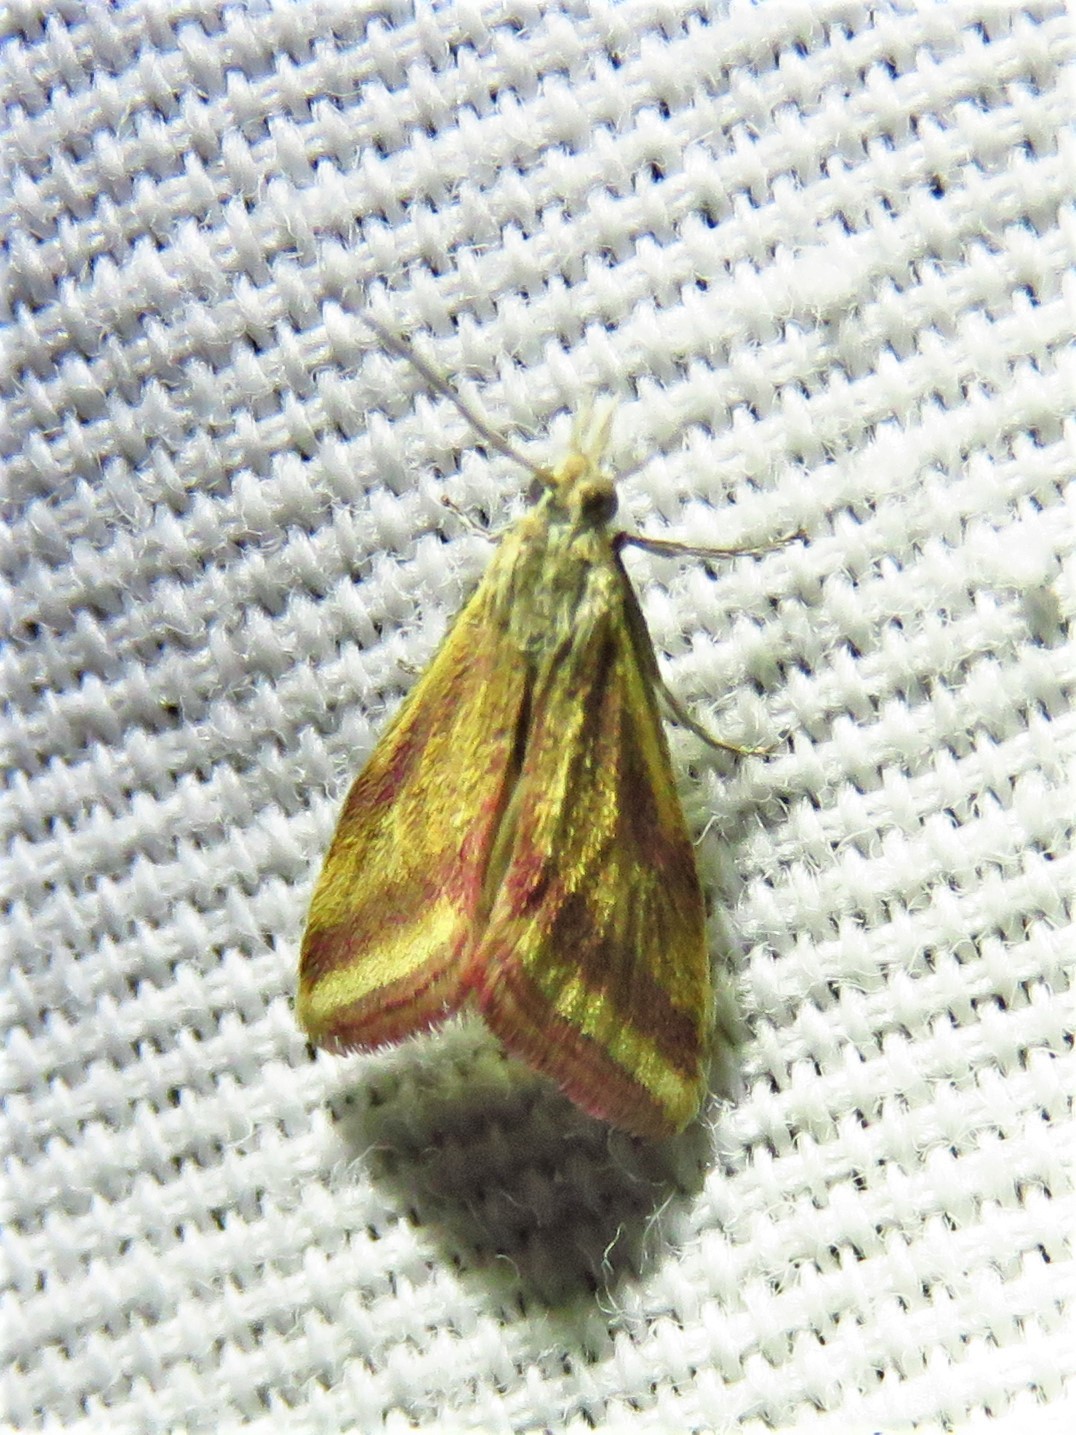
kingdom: Animalia
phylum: Arthropoda
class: Insecta
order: Lepidoptera
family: Crambidae
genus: Microtheoris
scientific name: Microtheoris vibicalis
